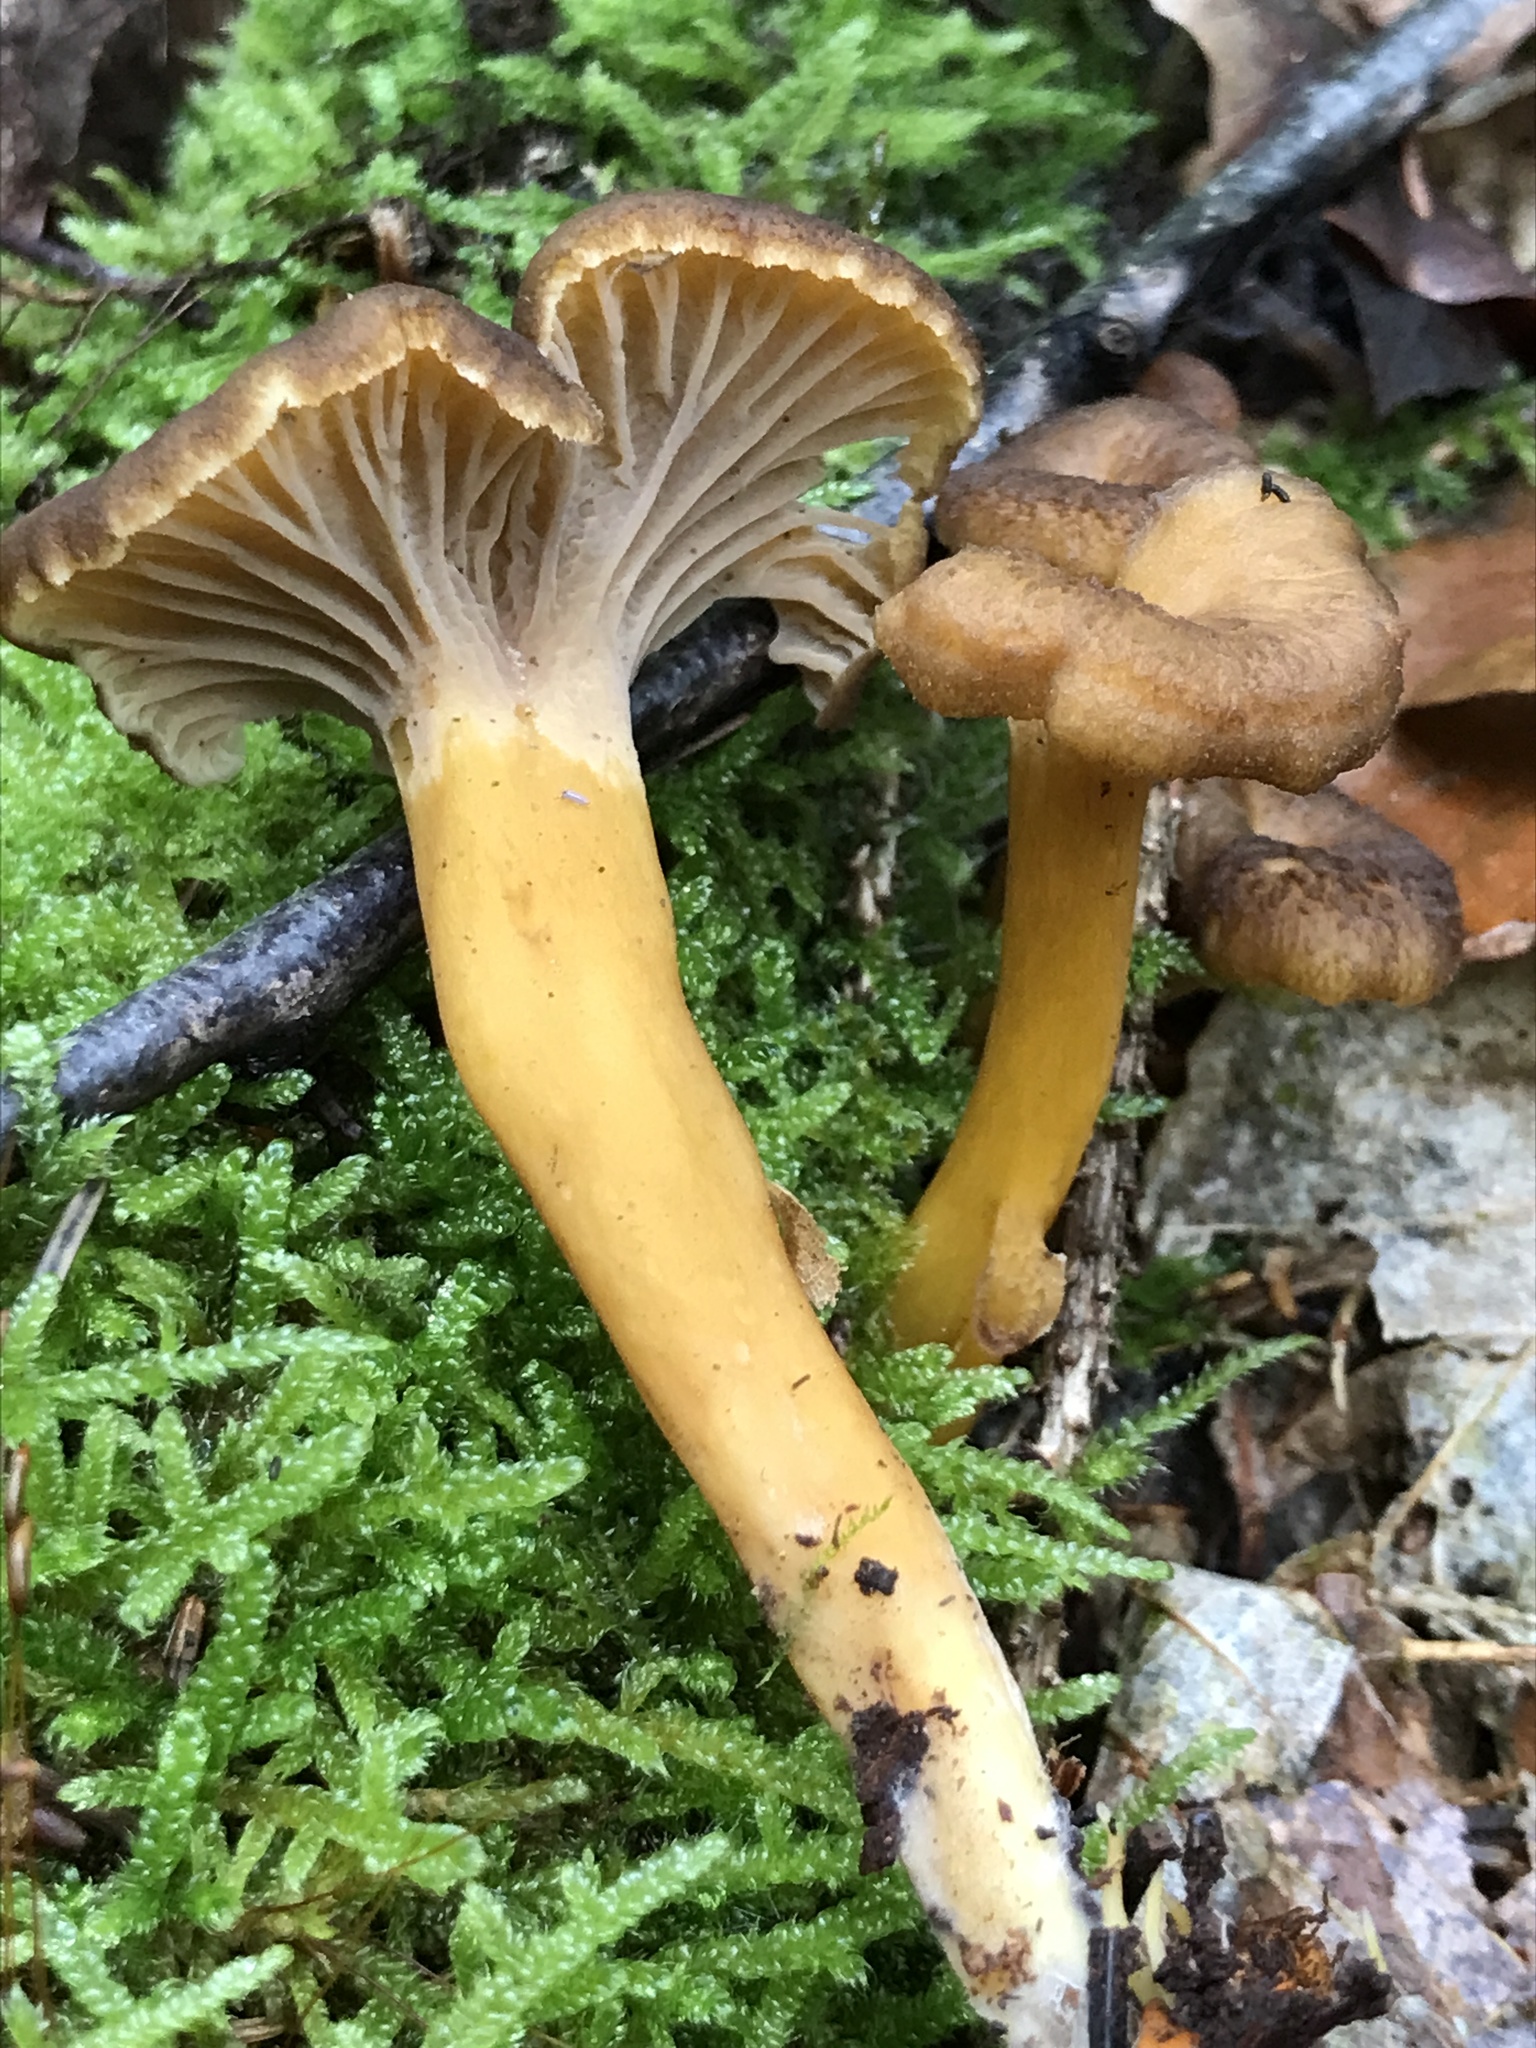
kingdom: Fungi
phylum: Basidiomycota
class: Agaricomycetes
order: Cantharellales
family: Hydnaceae
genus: Craterellus
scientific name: Craterellus tubaeformis
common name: Yellowfoot
